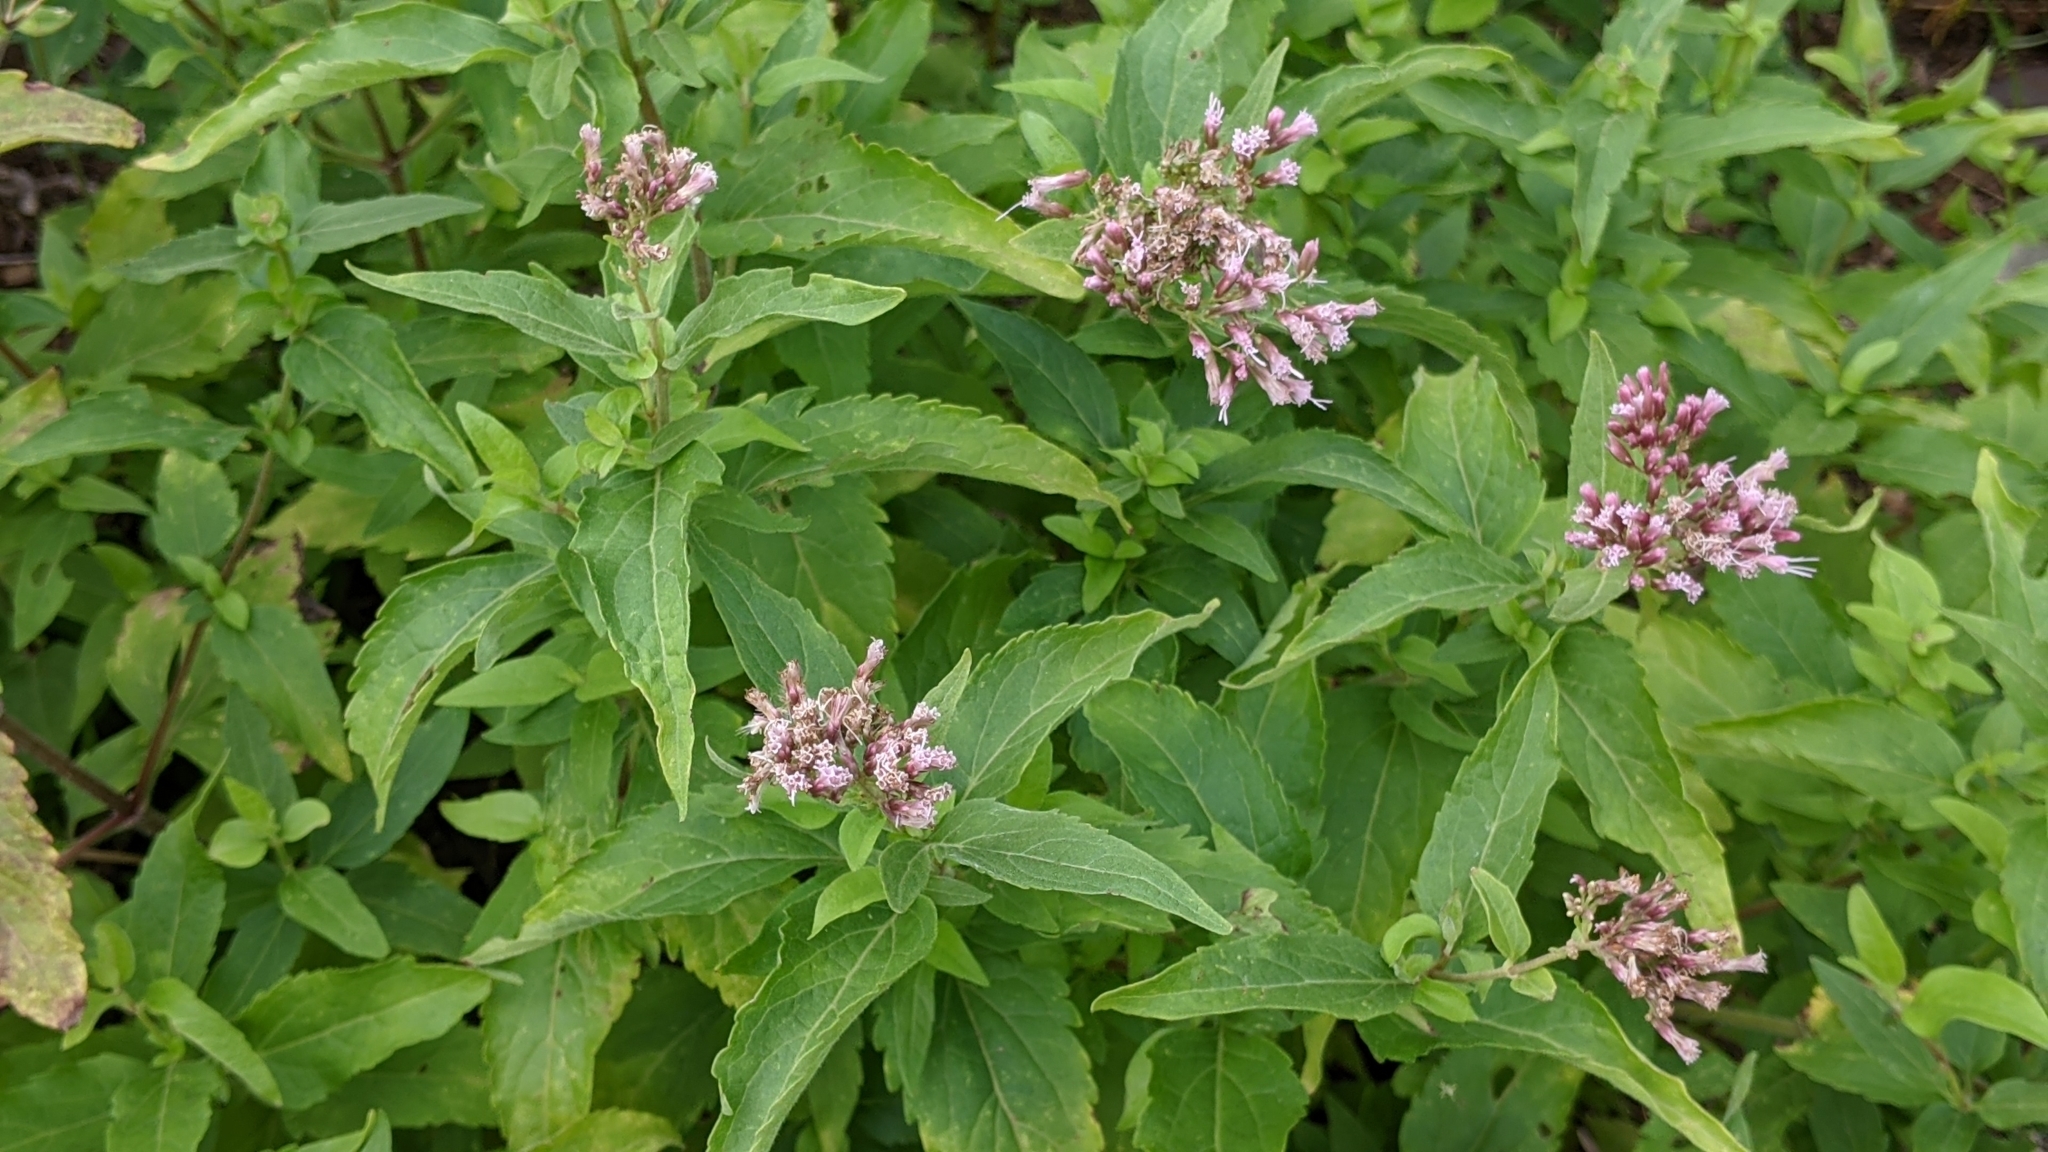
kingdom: Plantae
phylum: Tracheophyta
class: Magnoliopsida
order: Asterales
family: Asteraceae
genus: Eupatorium
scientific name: Eupatorium cannabinum
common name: Hemp-agrimony
